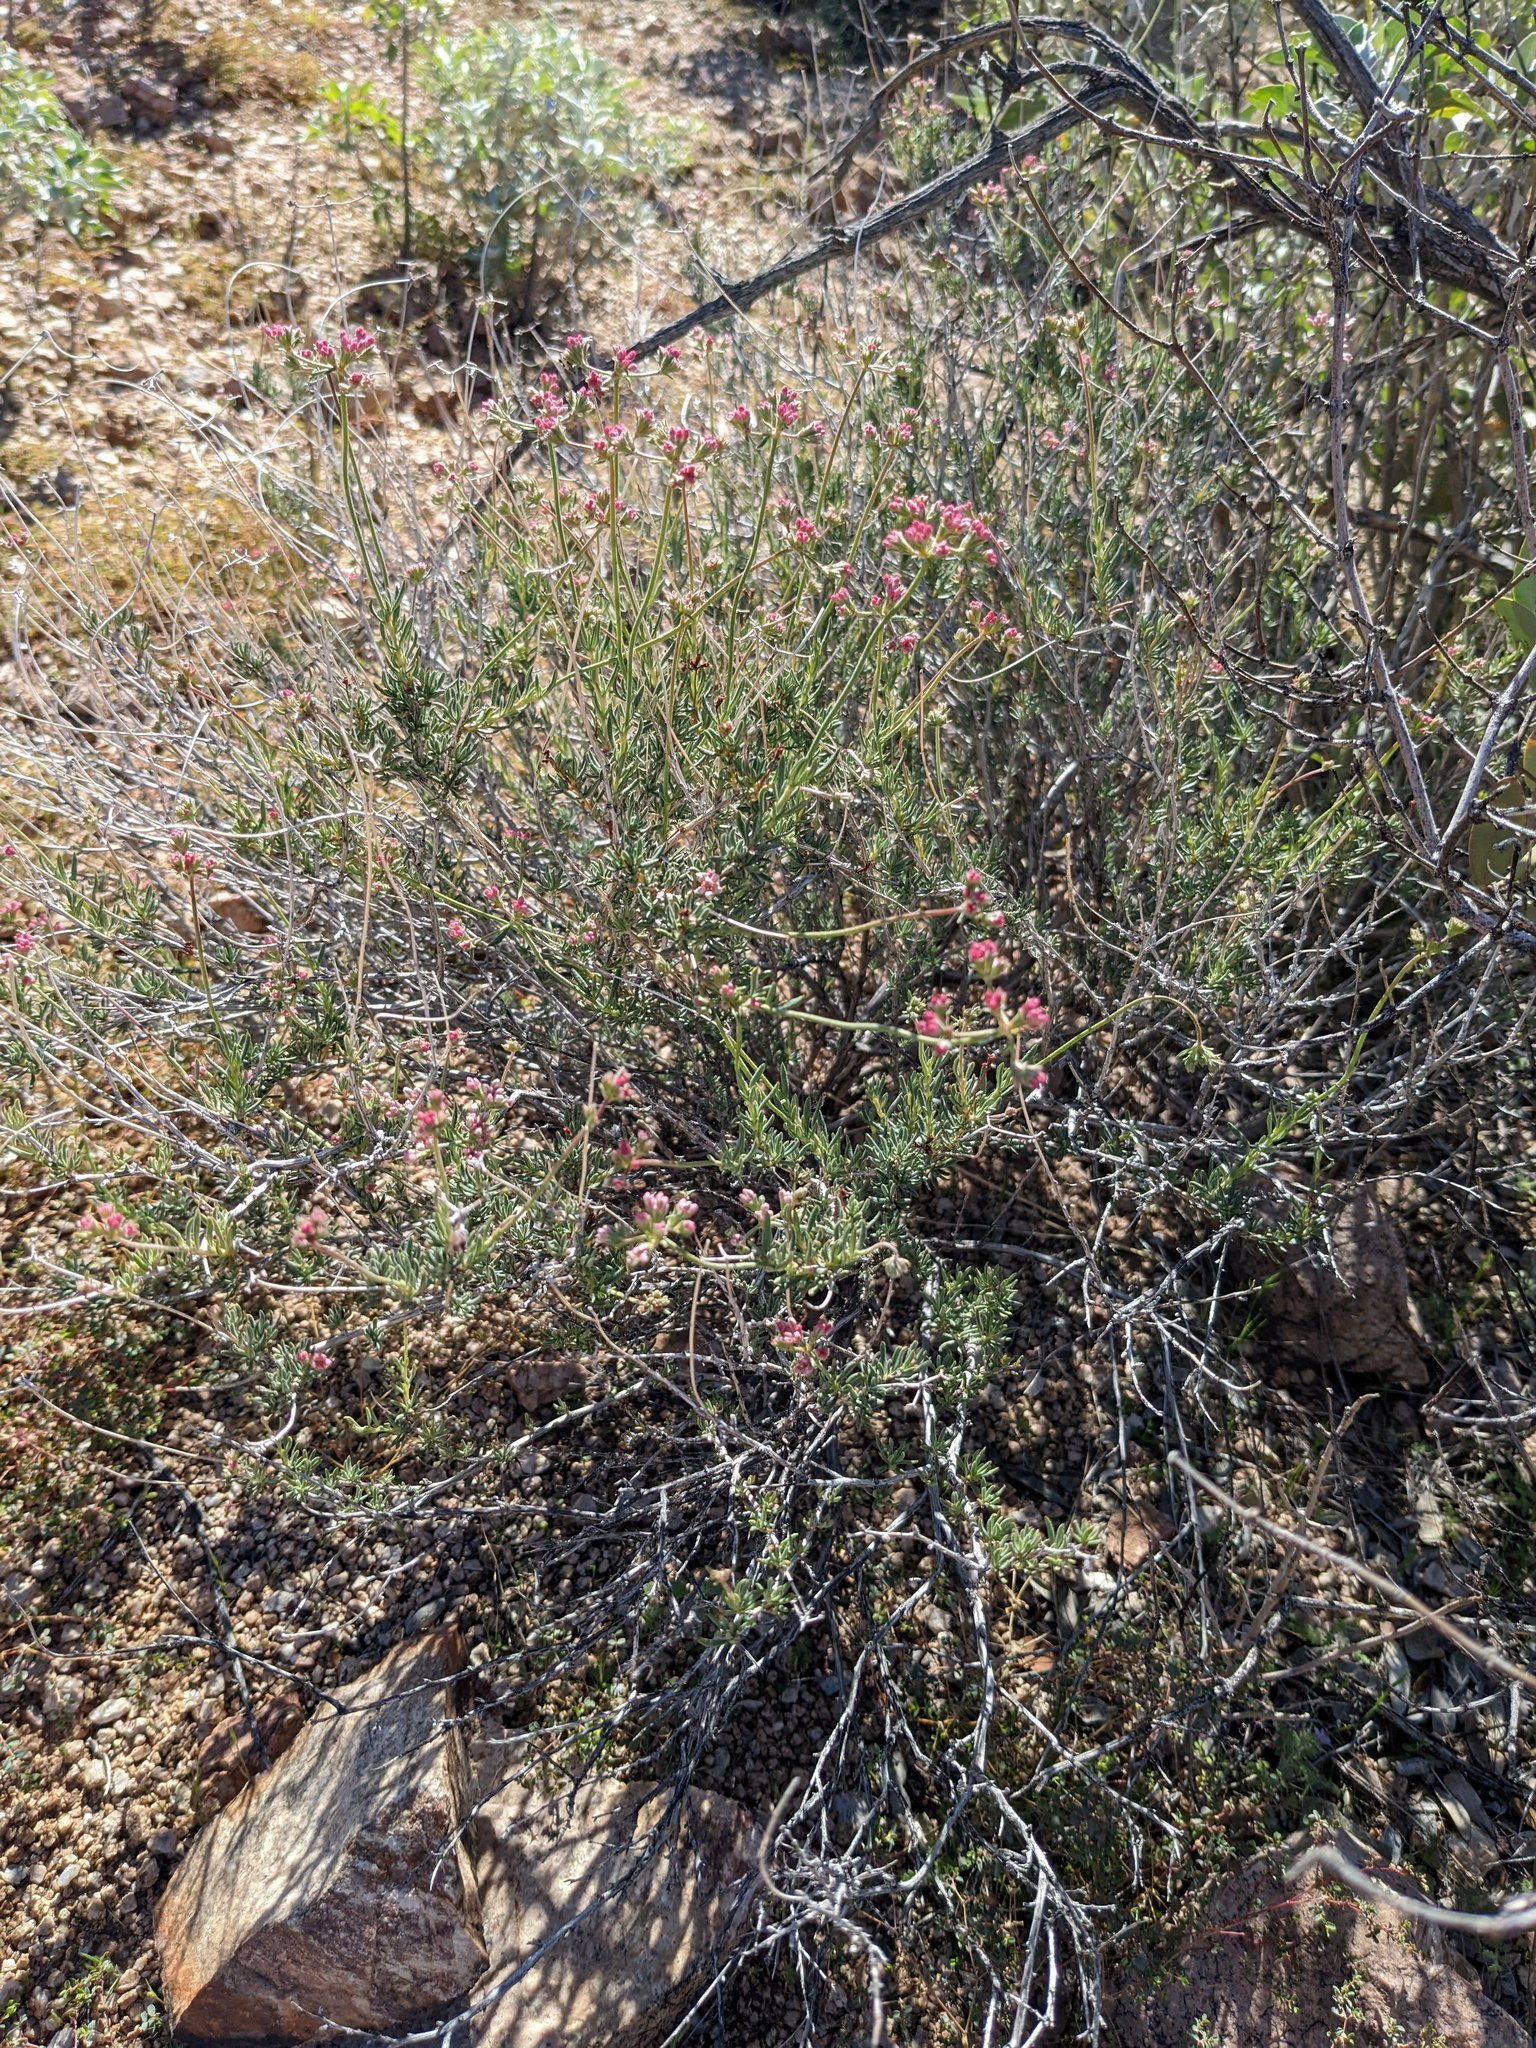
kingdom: Plantae
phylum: Tracheophyta
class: Magnoliopsida
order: Caryophyllales
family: Polygonaceae
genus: Eriogonum
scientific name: Eriogonum fasciculatum
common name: California wild buckwheat
